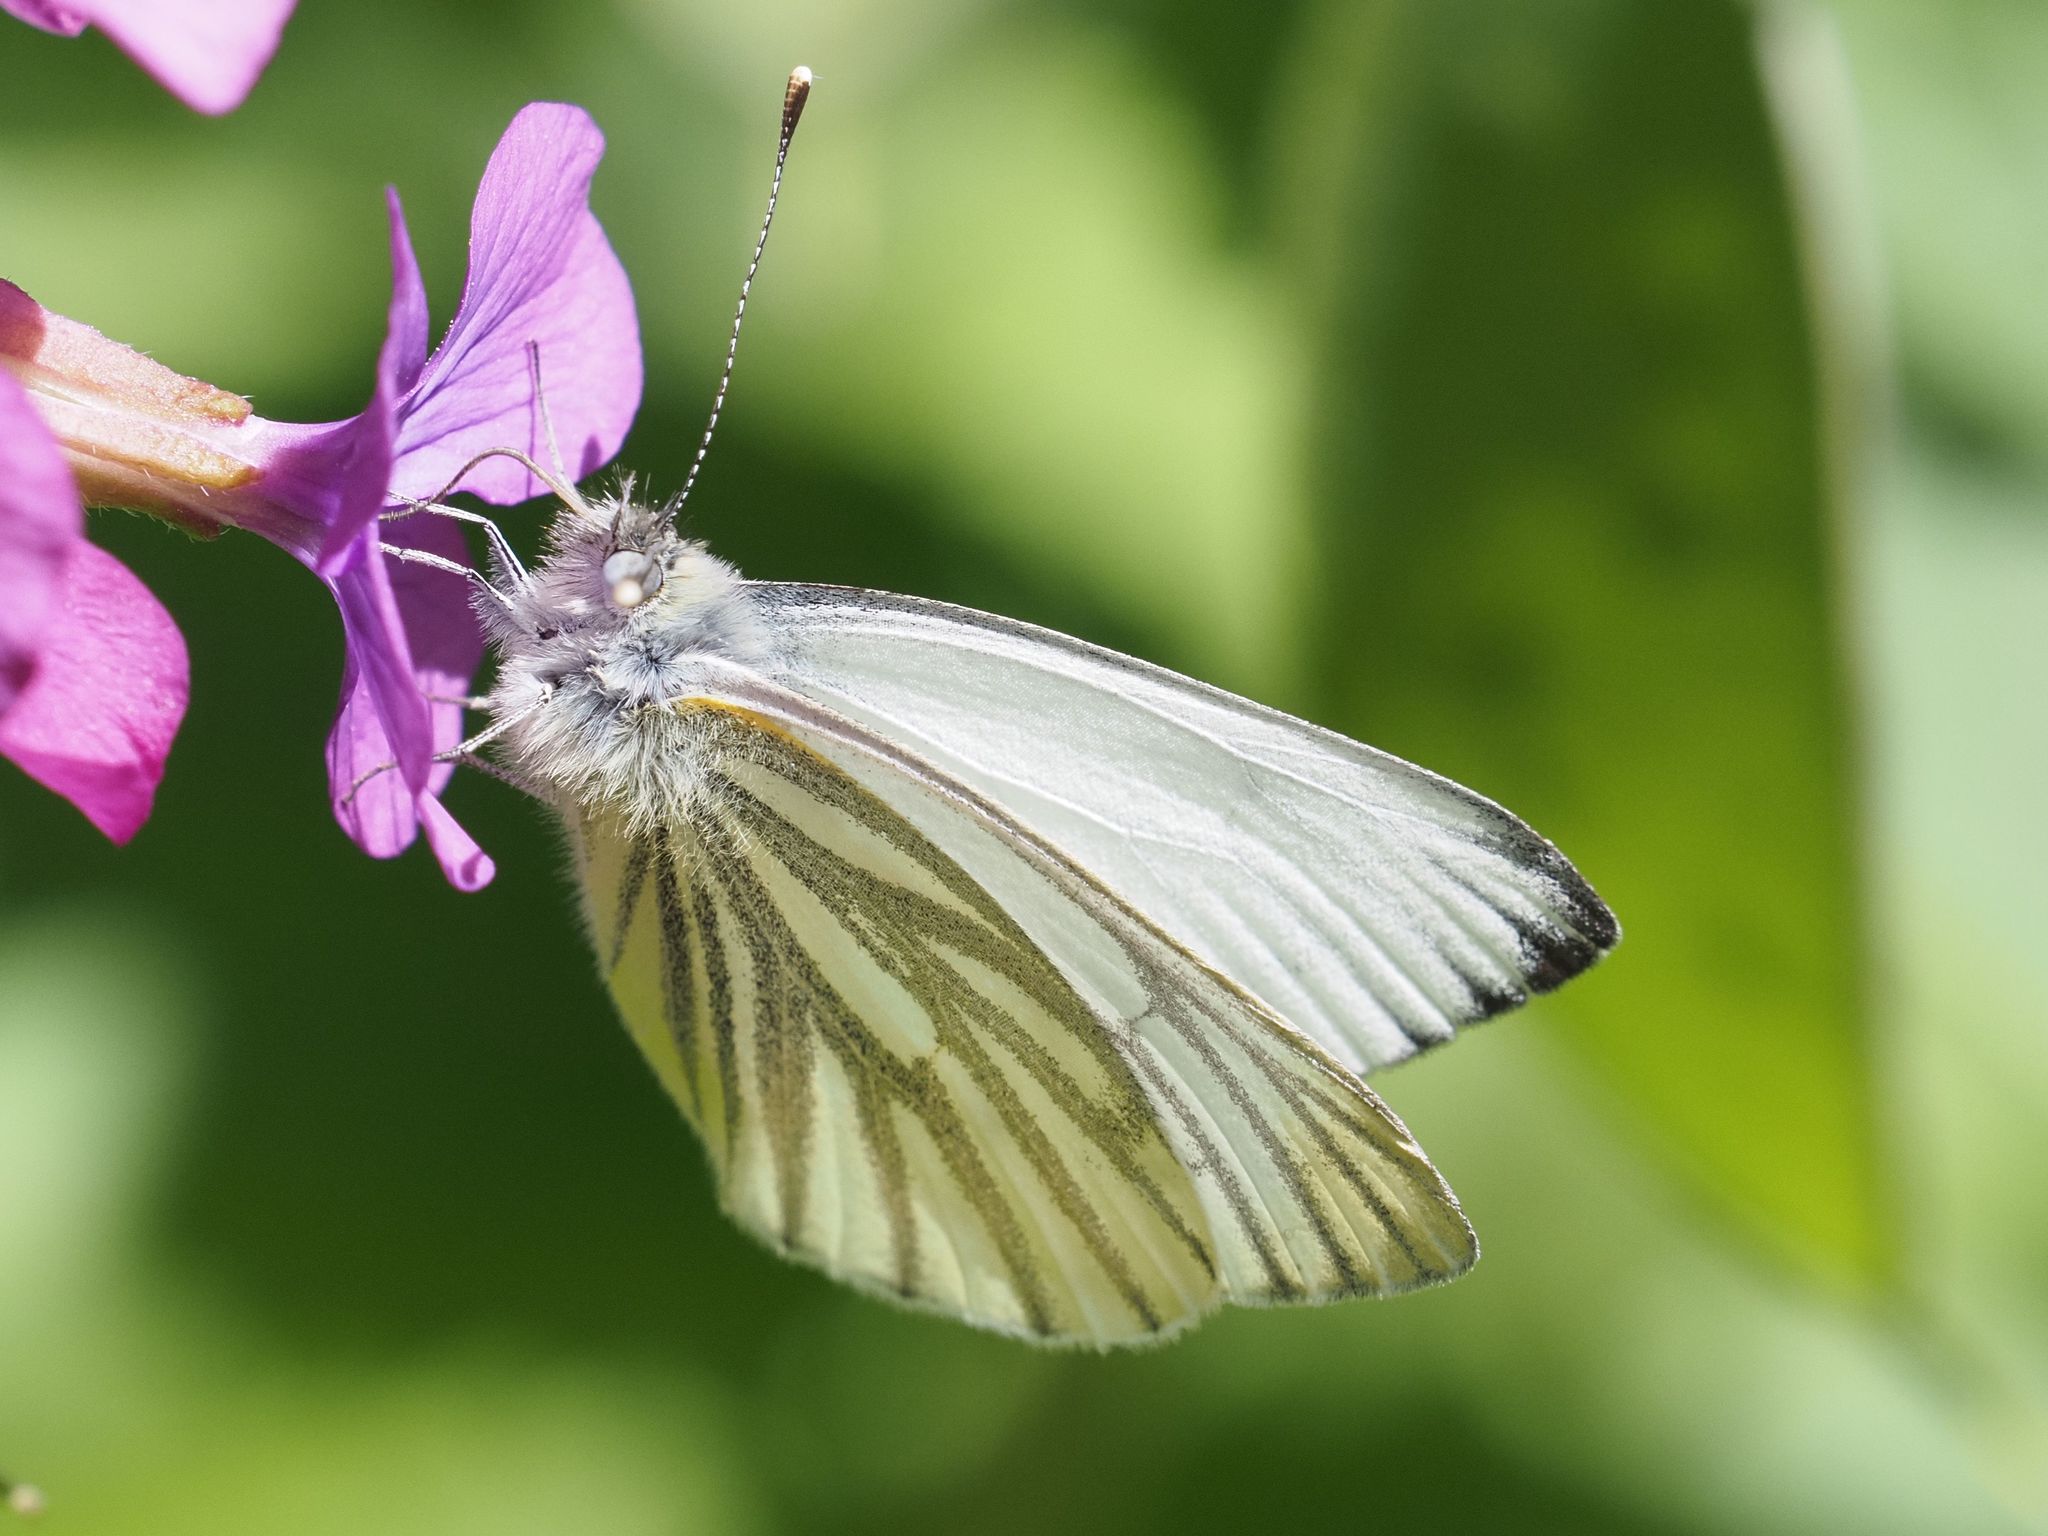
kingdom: Animalia
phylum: Arthropoda
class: Insecta
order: Lepidoptera
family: Pieridae
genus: Pieris
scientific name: Pieris napi
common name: Green-veined white
